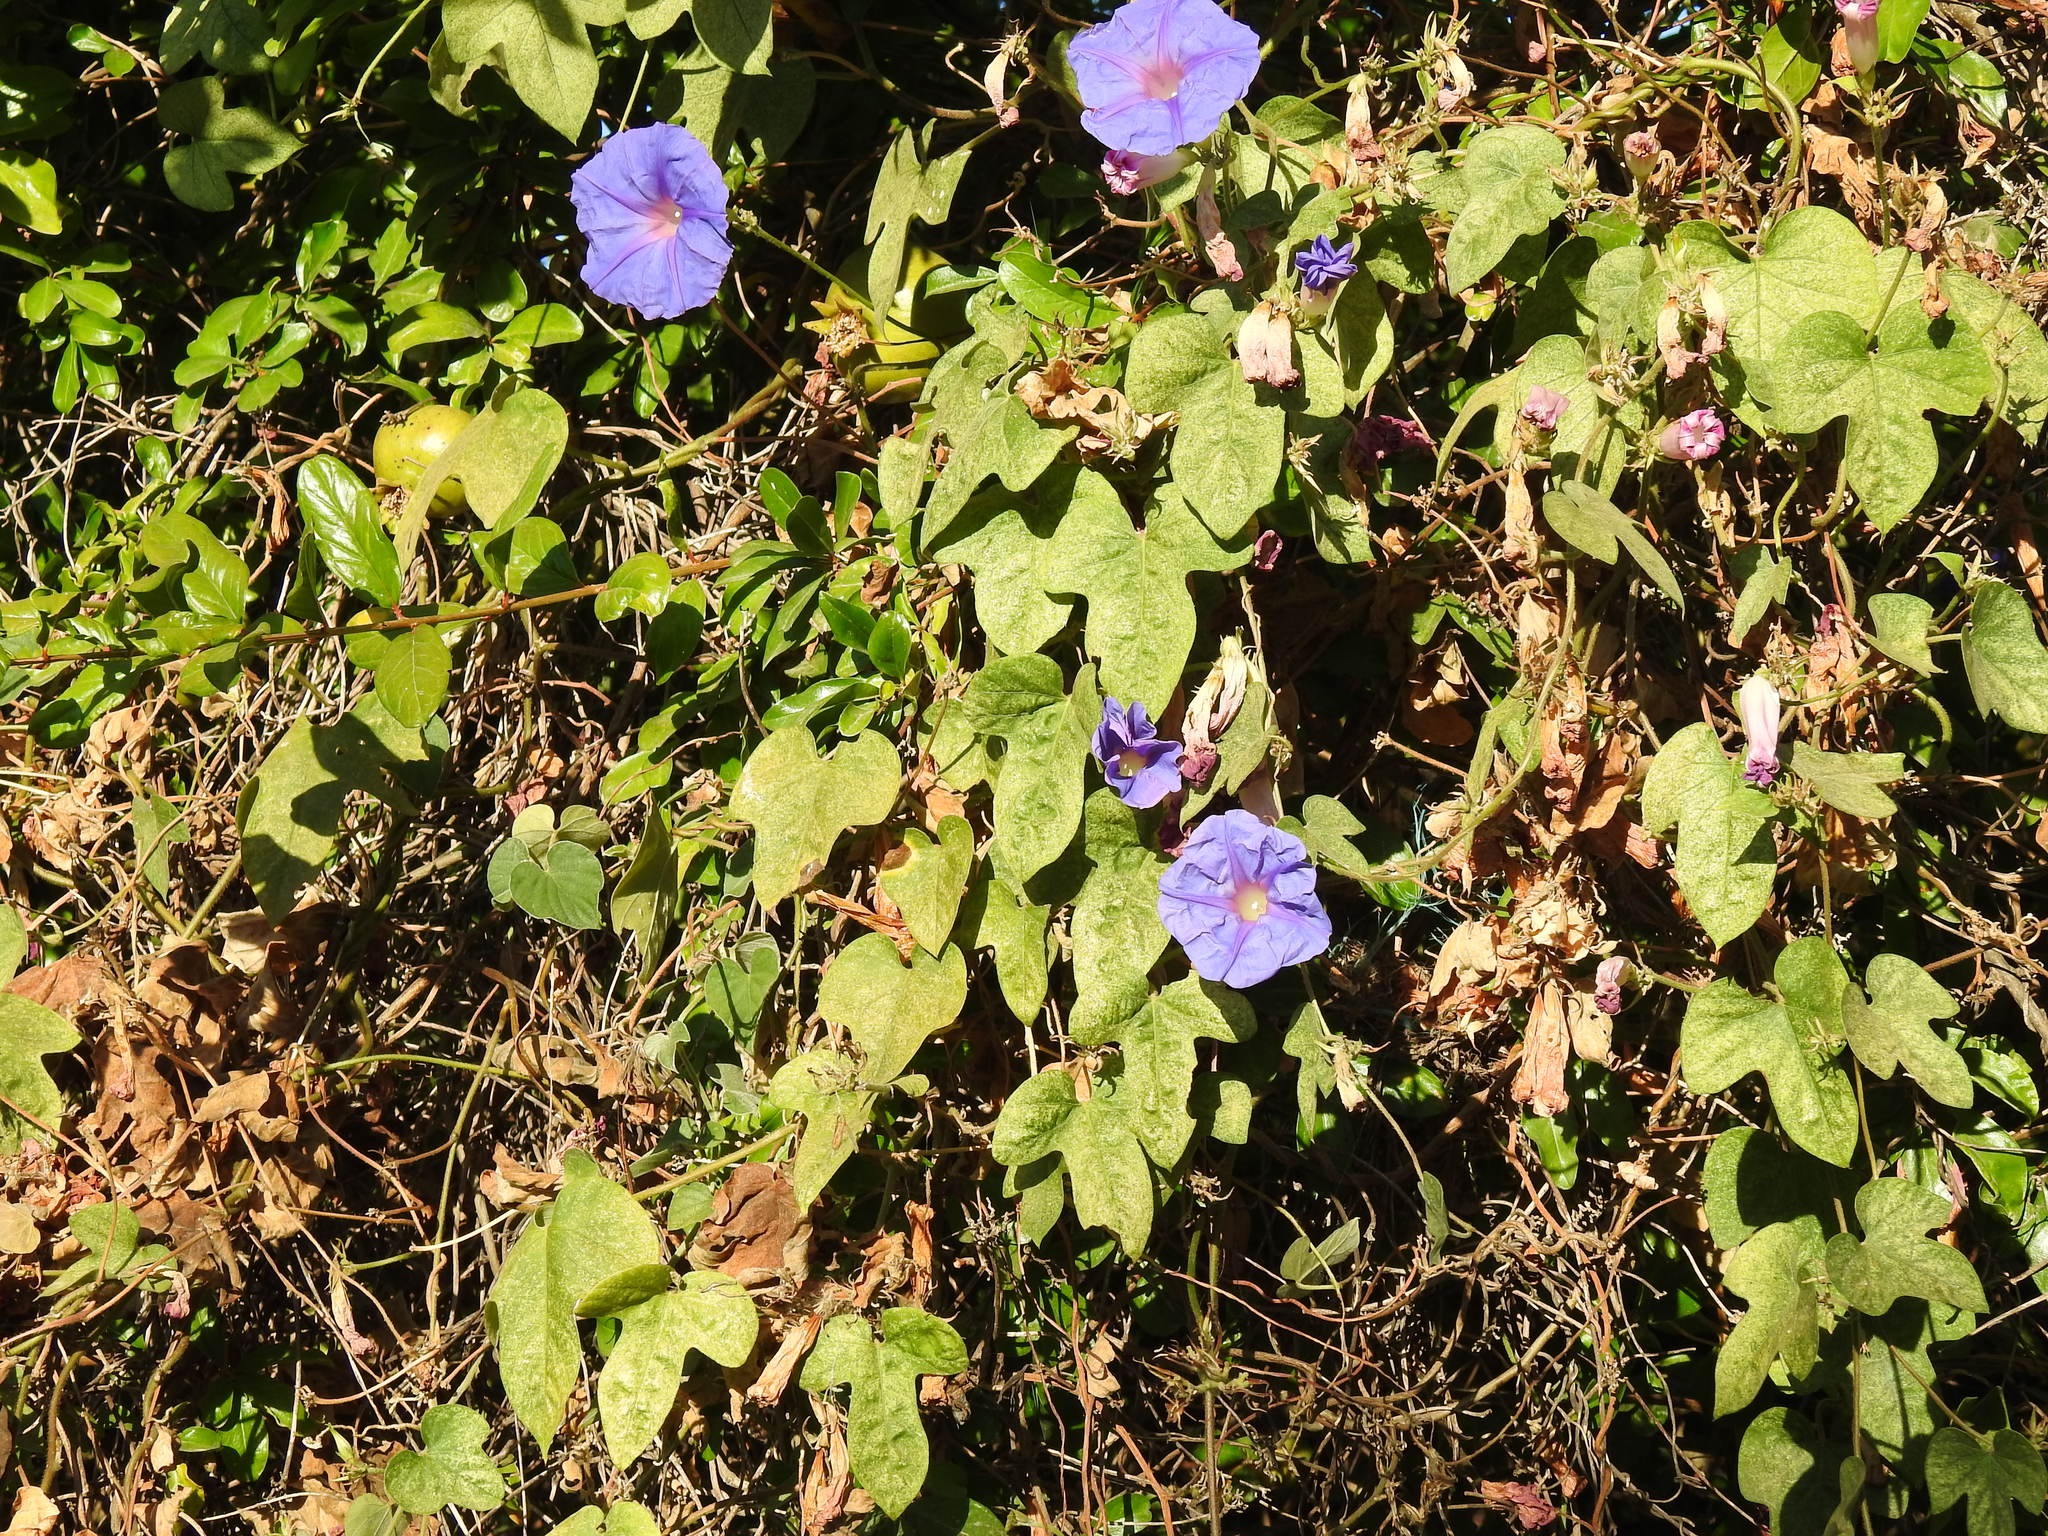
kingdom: Plantae
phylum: Tracheophyta
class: Magnoliopsida
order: Solanales
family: Convolvulaceae
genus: Ipomoea
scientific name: Ipomoea indica
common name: Blue dawnflower
